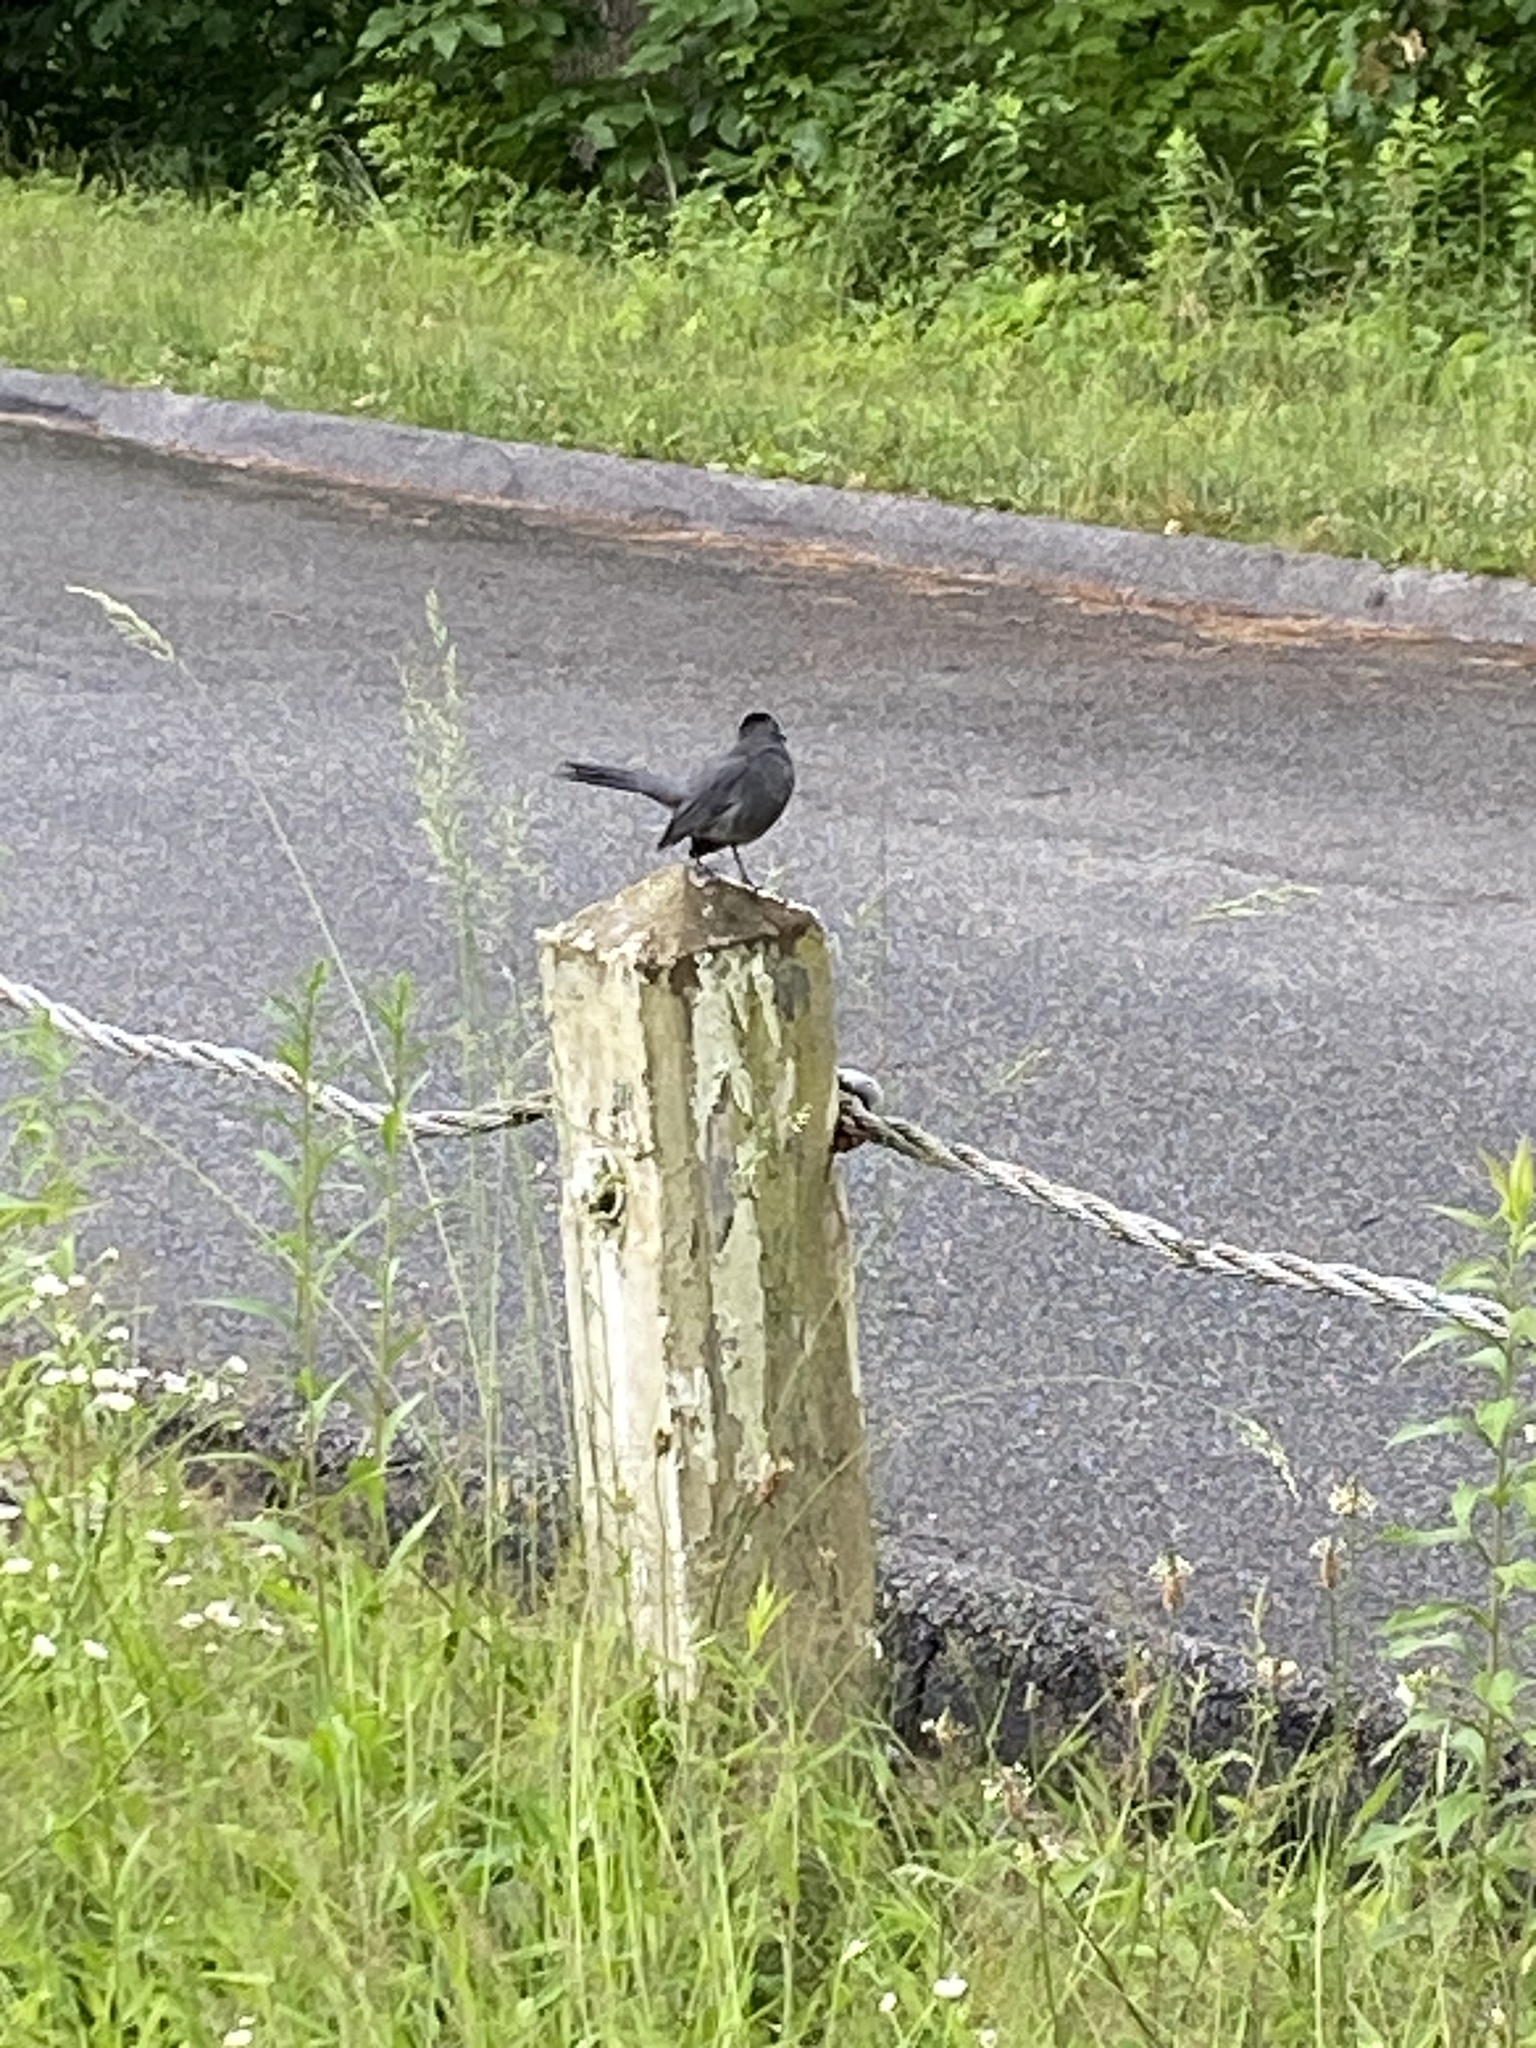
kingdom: Animalia
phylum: Chordata
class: Aves
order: Passeriformes
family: Mimidae
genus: Dumetella
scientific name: Dumetella carolinensis
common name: Gray catbird
